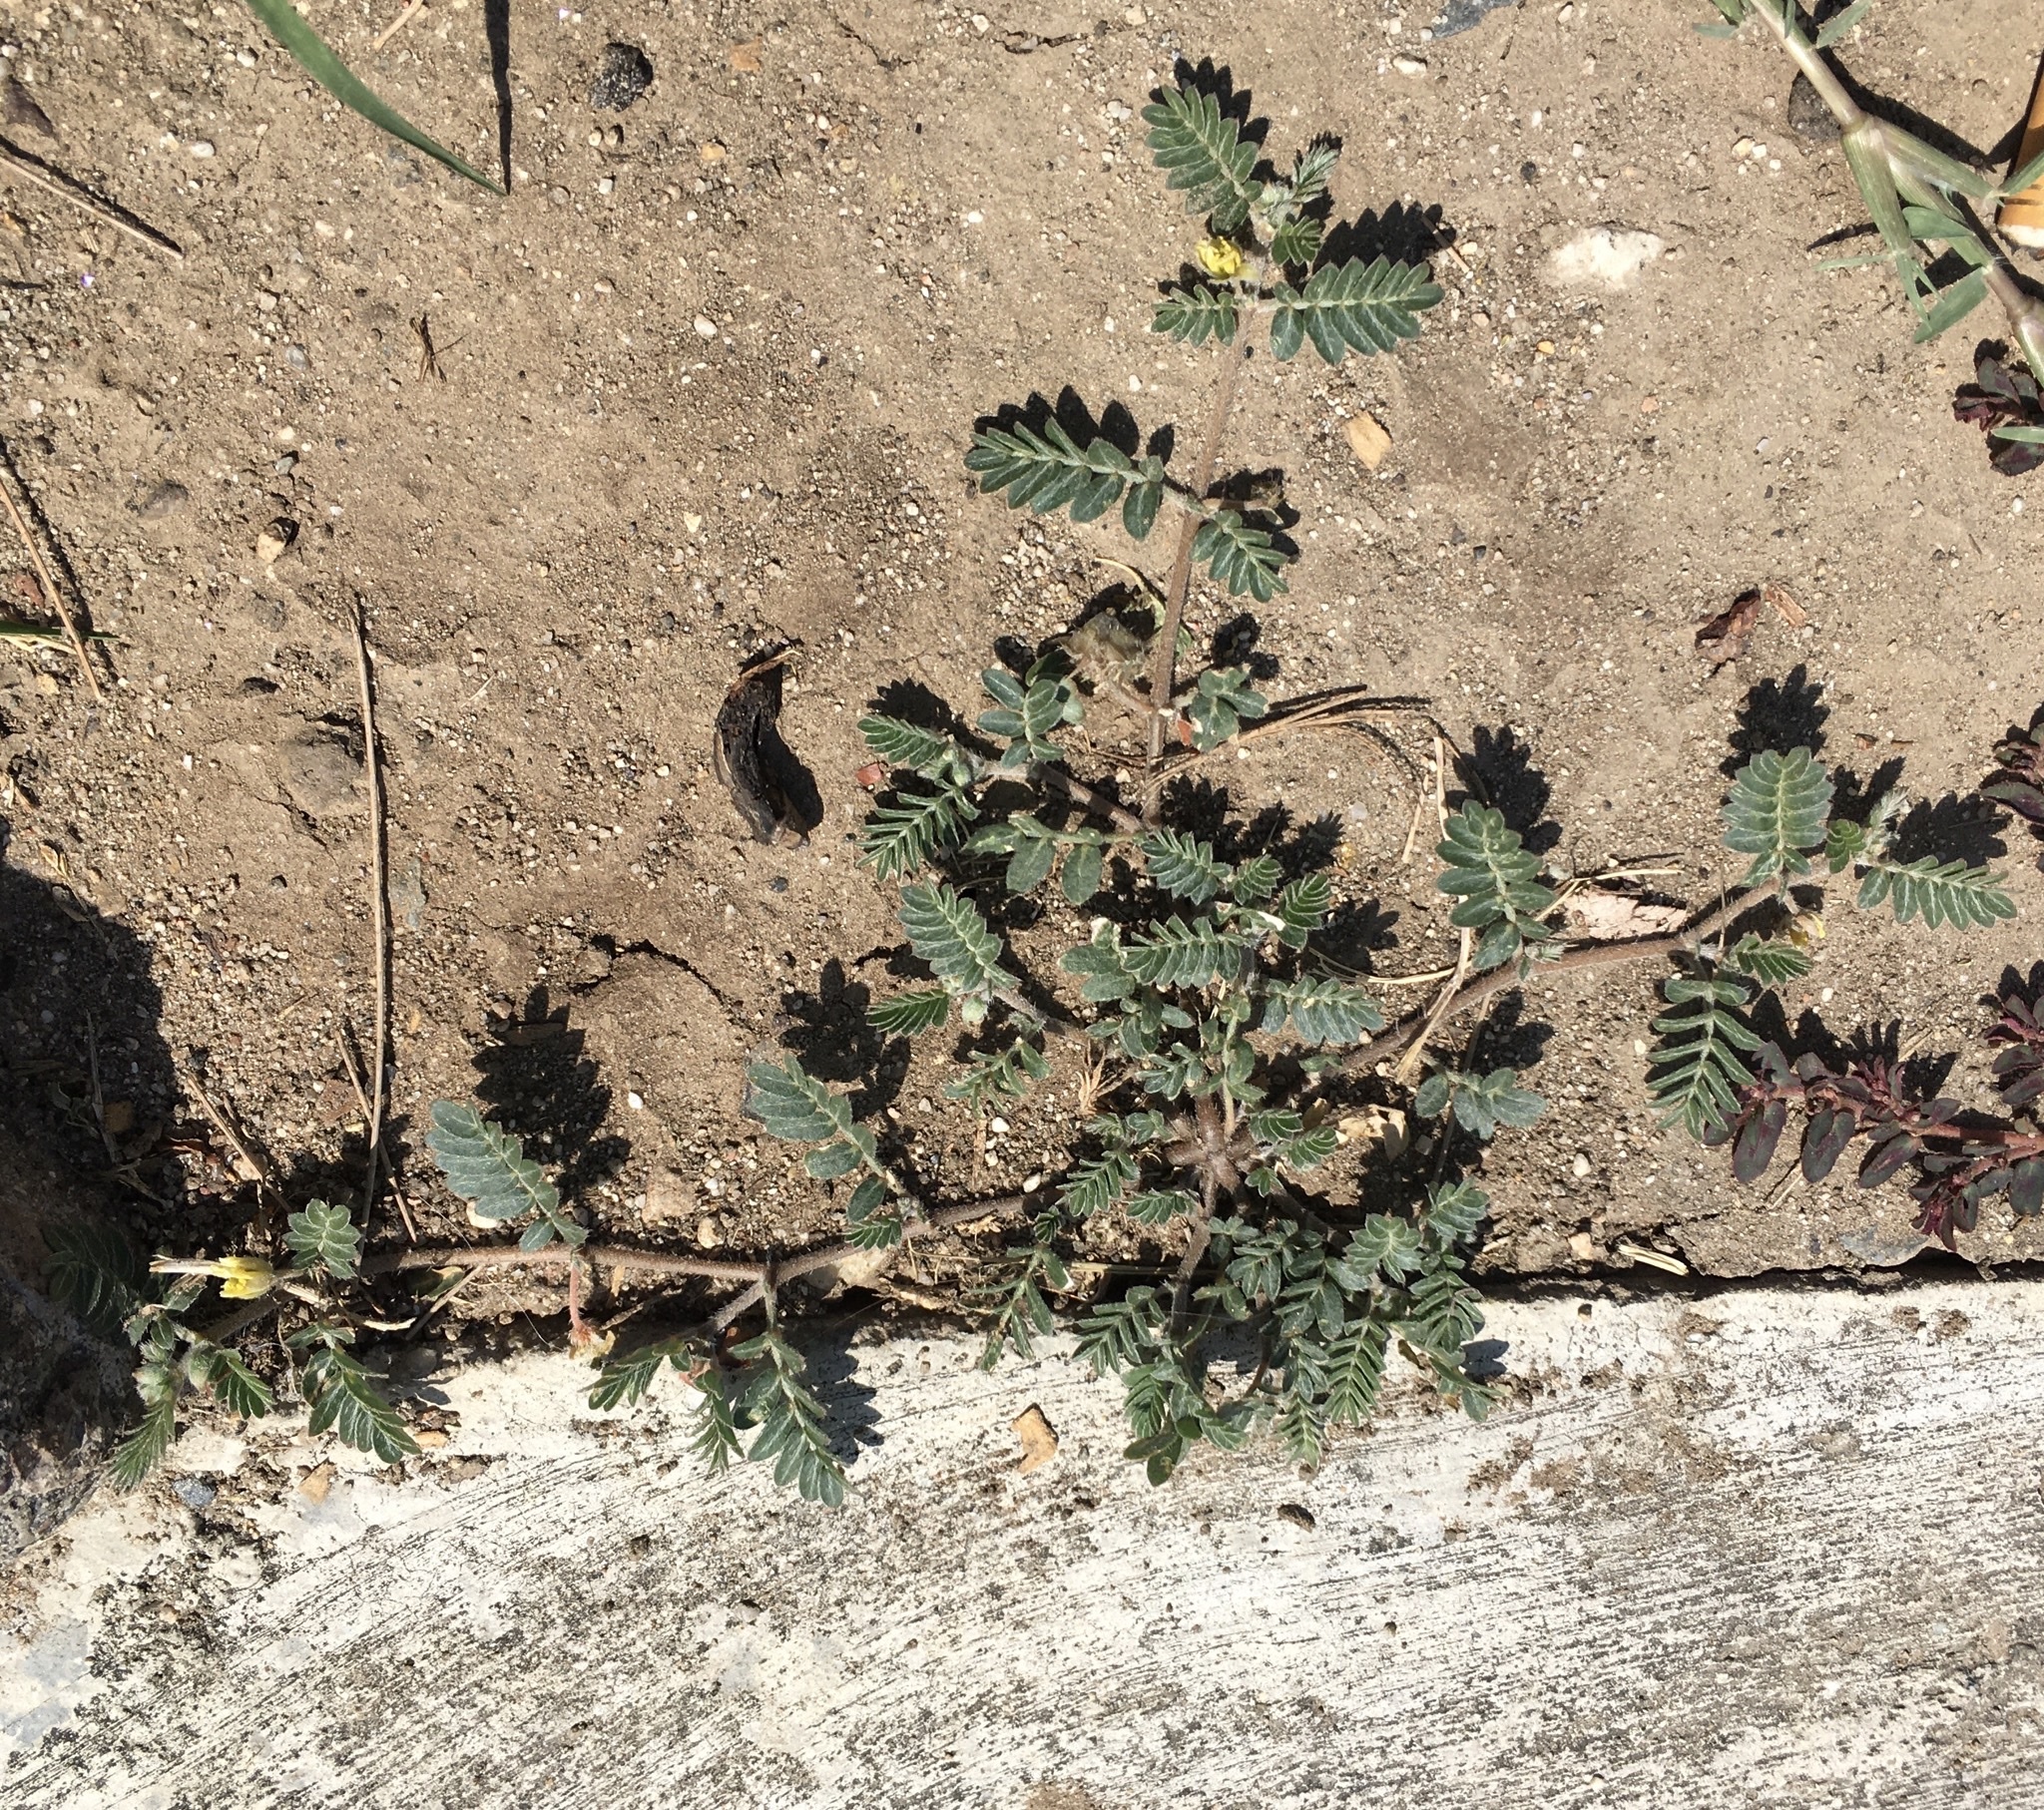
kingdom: Plantae
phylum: Tracheophyta
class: Magnoliopsida
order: Zygophyllales
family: Zygophyllaceae
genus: Tribulus
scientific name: Tribulus terrestris
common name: Puncturevine
